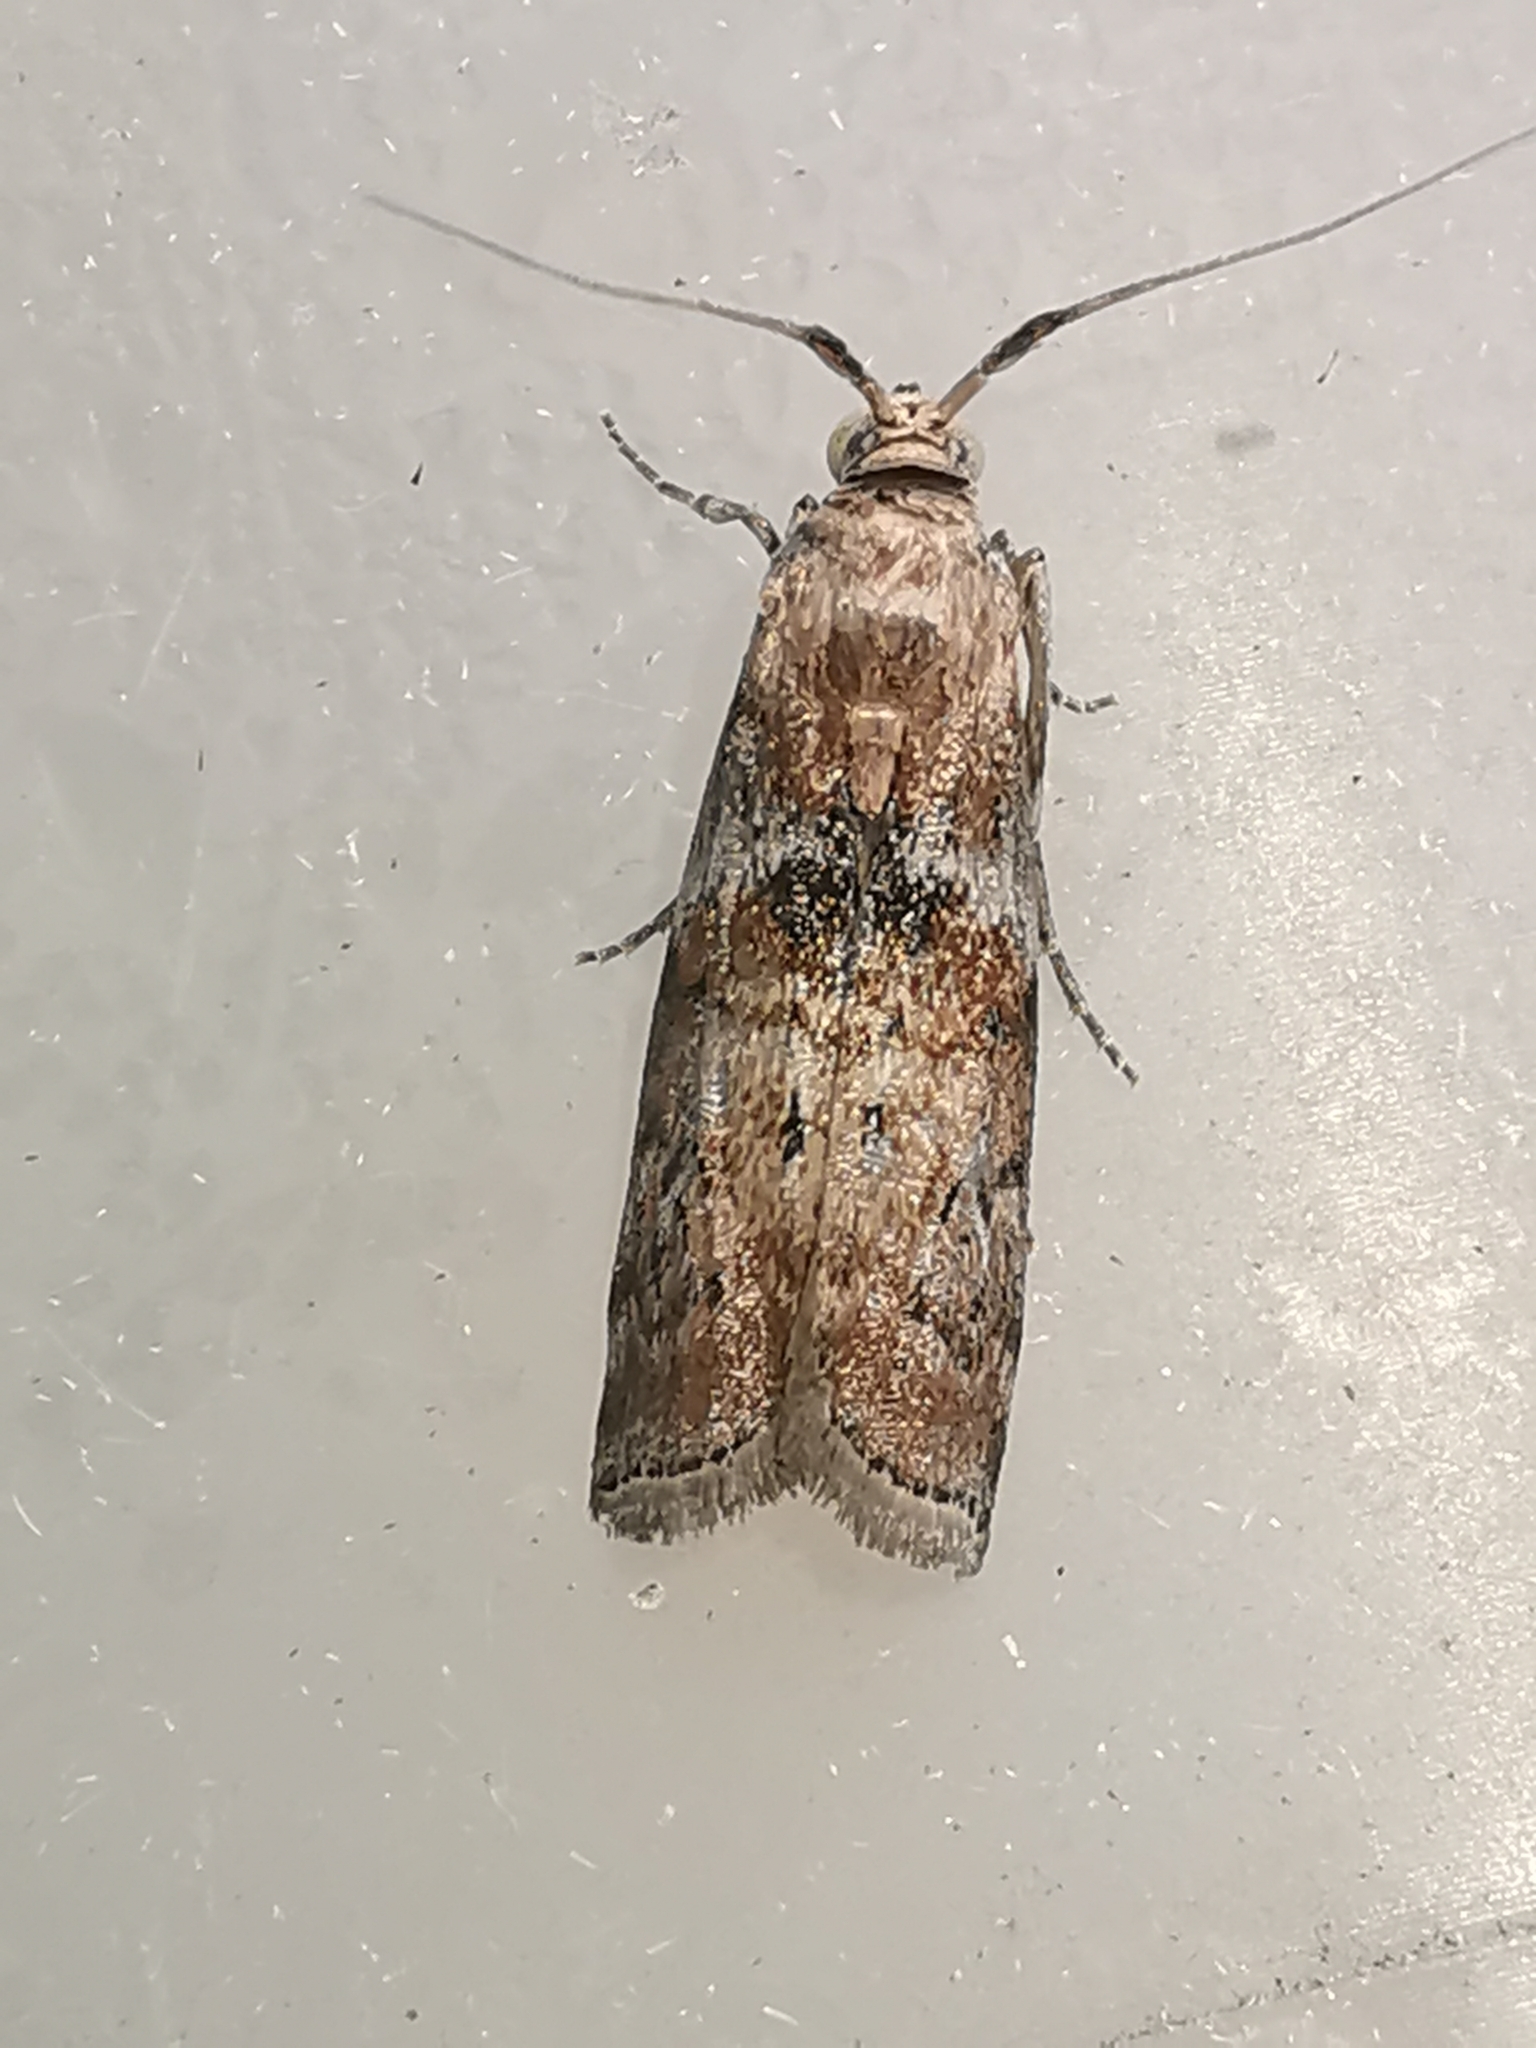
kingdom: Animalia
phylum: Arthropoda
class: Insecta
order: Lepidoptera
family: Pyralidae
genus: Phycita
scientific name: Phycita roborella
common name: Dotted oak knot-horn
